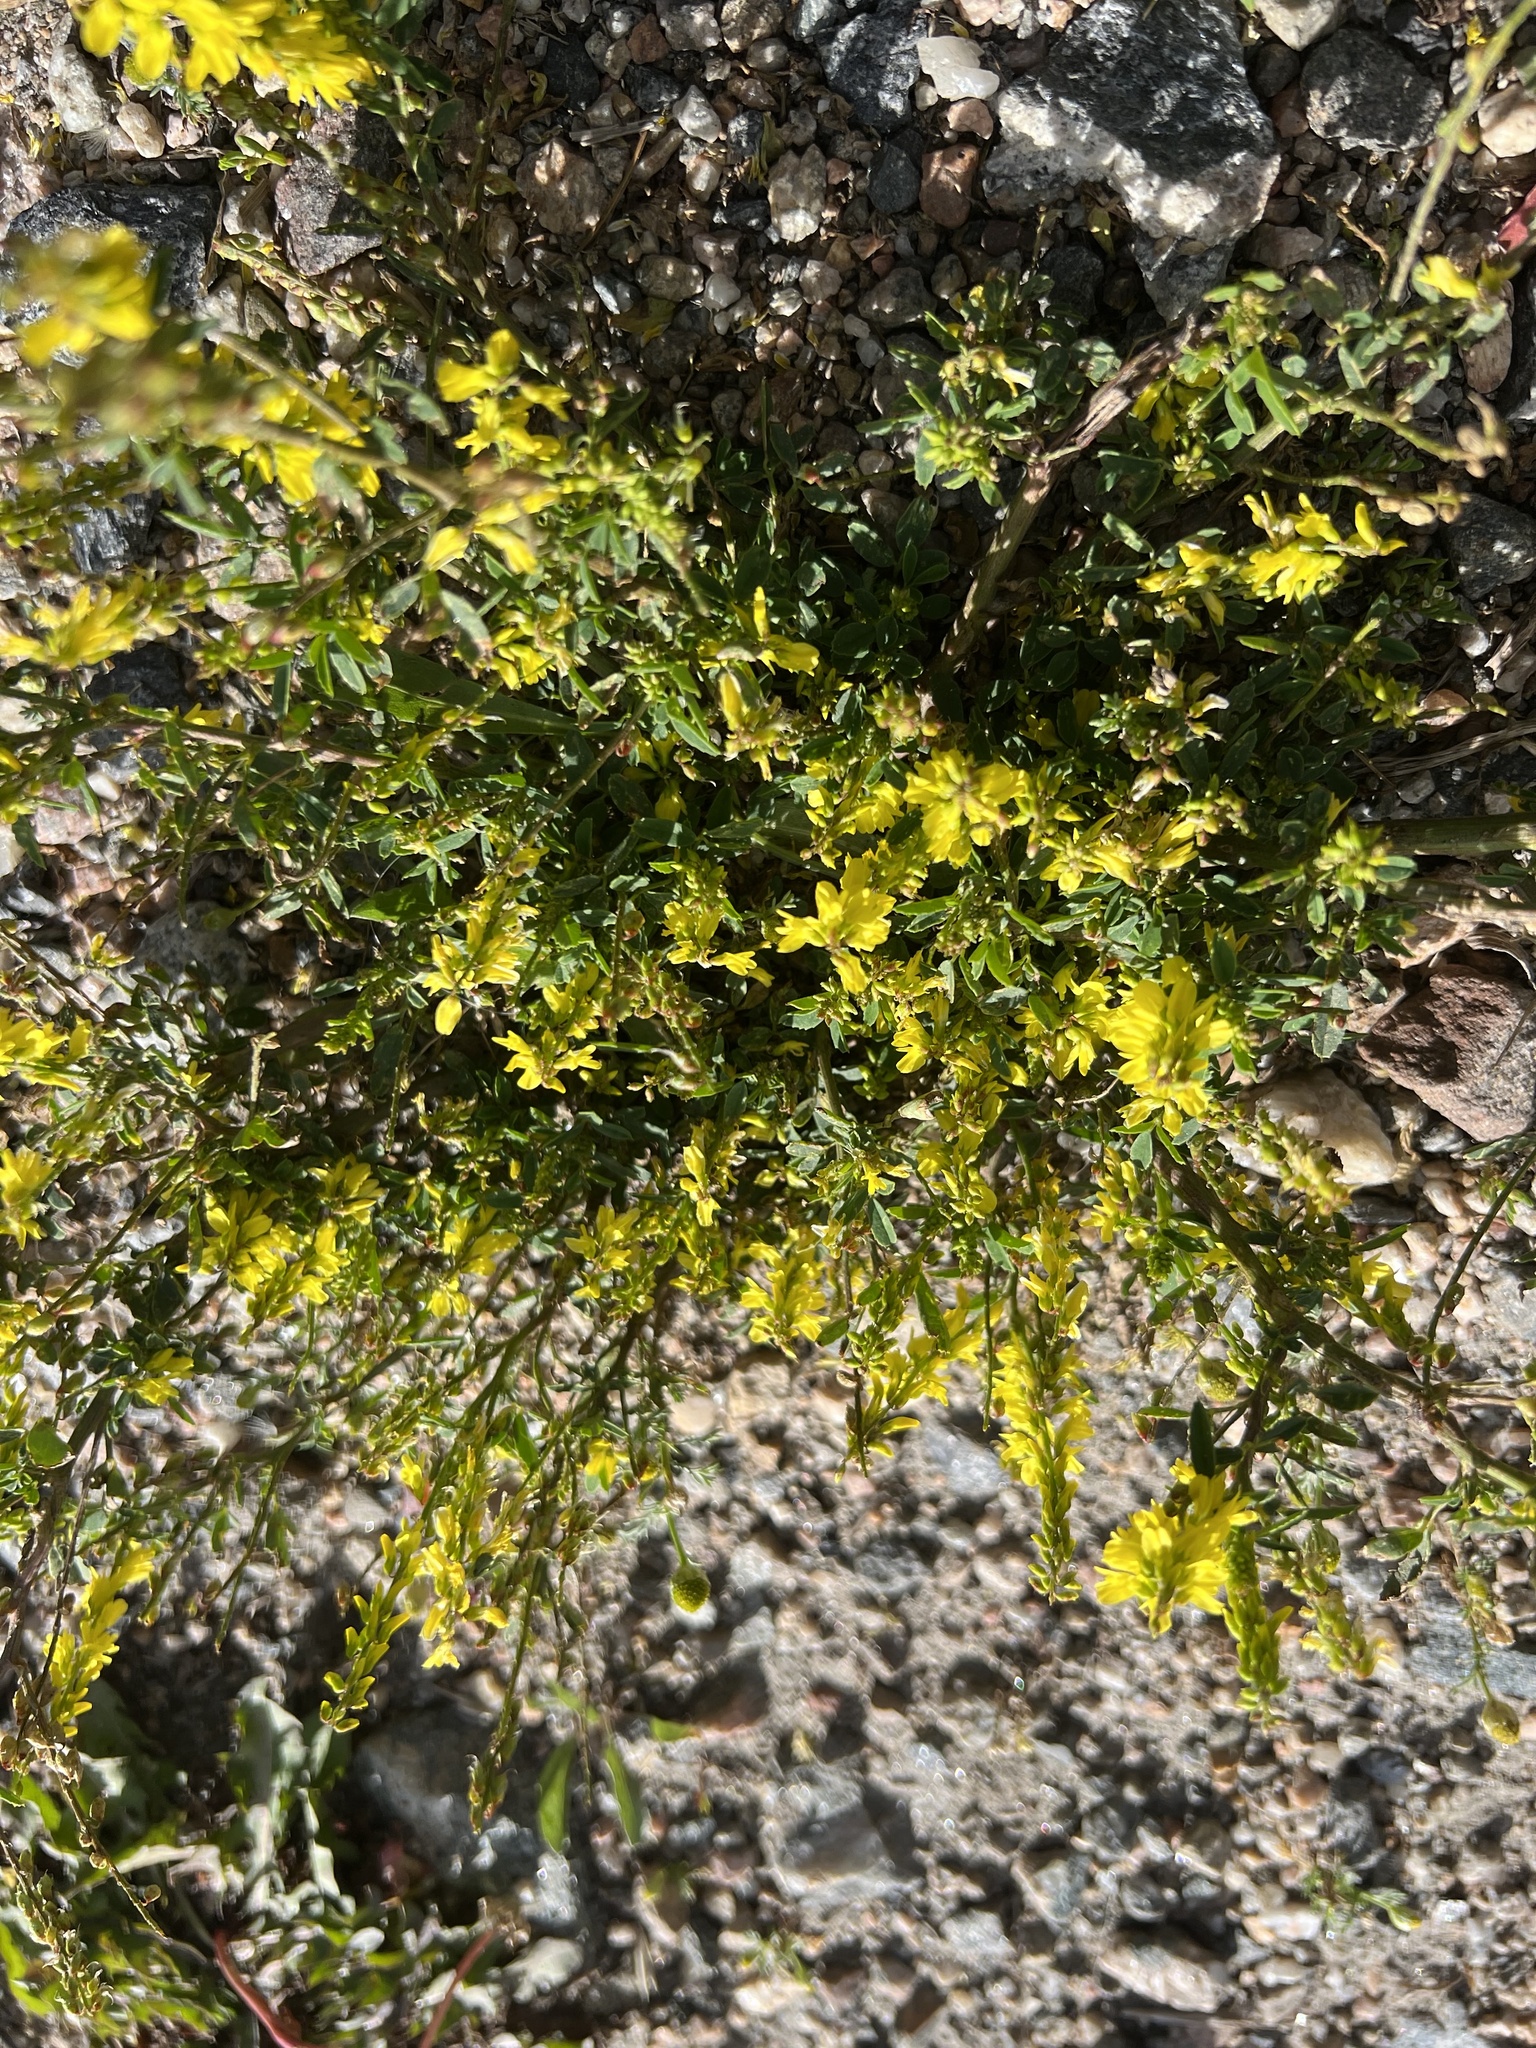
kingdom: Plantae
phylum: Tracheophyta
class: Magnoliopsida
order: Fabales
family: Fabaceae
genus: Melilotus
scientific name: Melilotus officinalis
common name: Sweetclover
